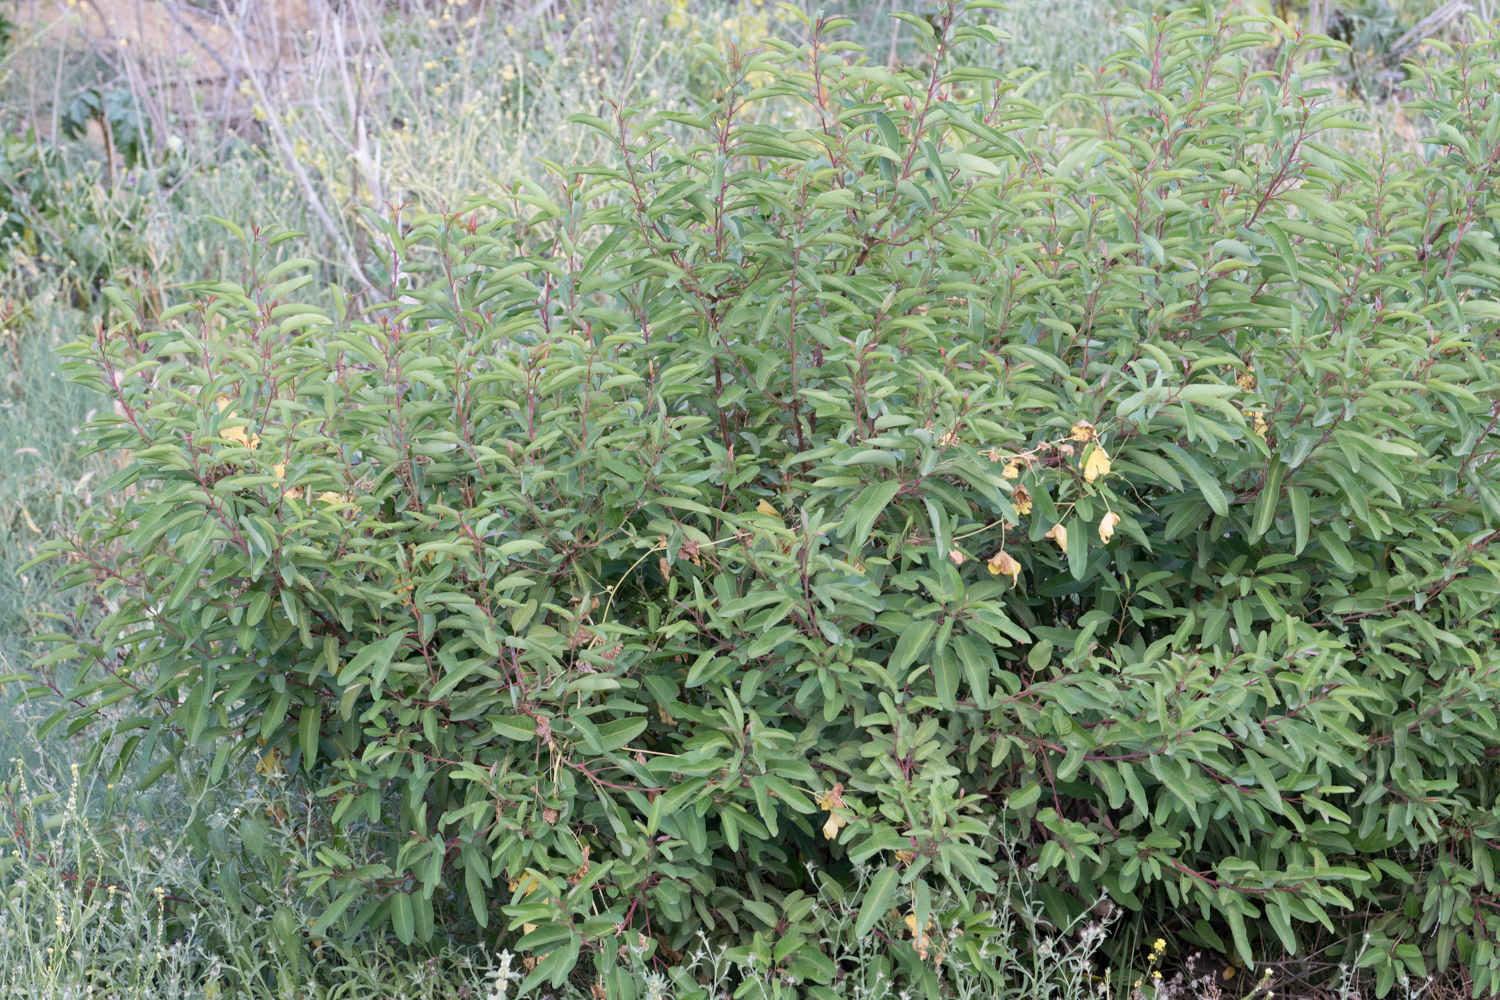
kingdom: Plantae
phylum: Tracheophyta
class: Magnoliopsida
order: Sapindales
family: Anacardiaceae
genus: Malosma
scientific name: Malosma laurina
